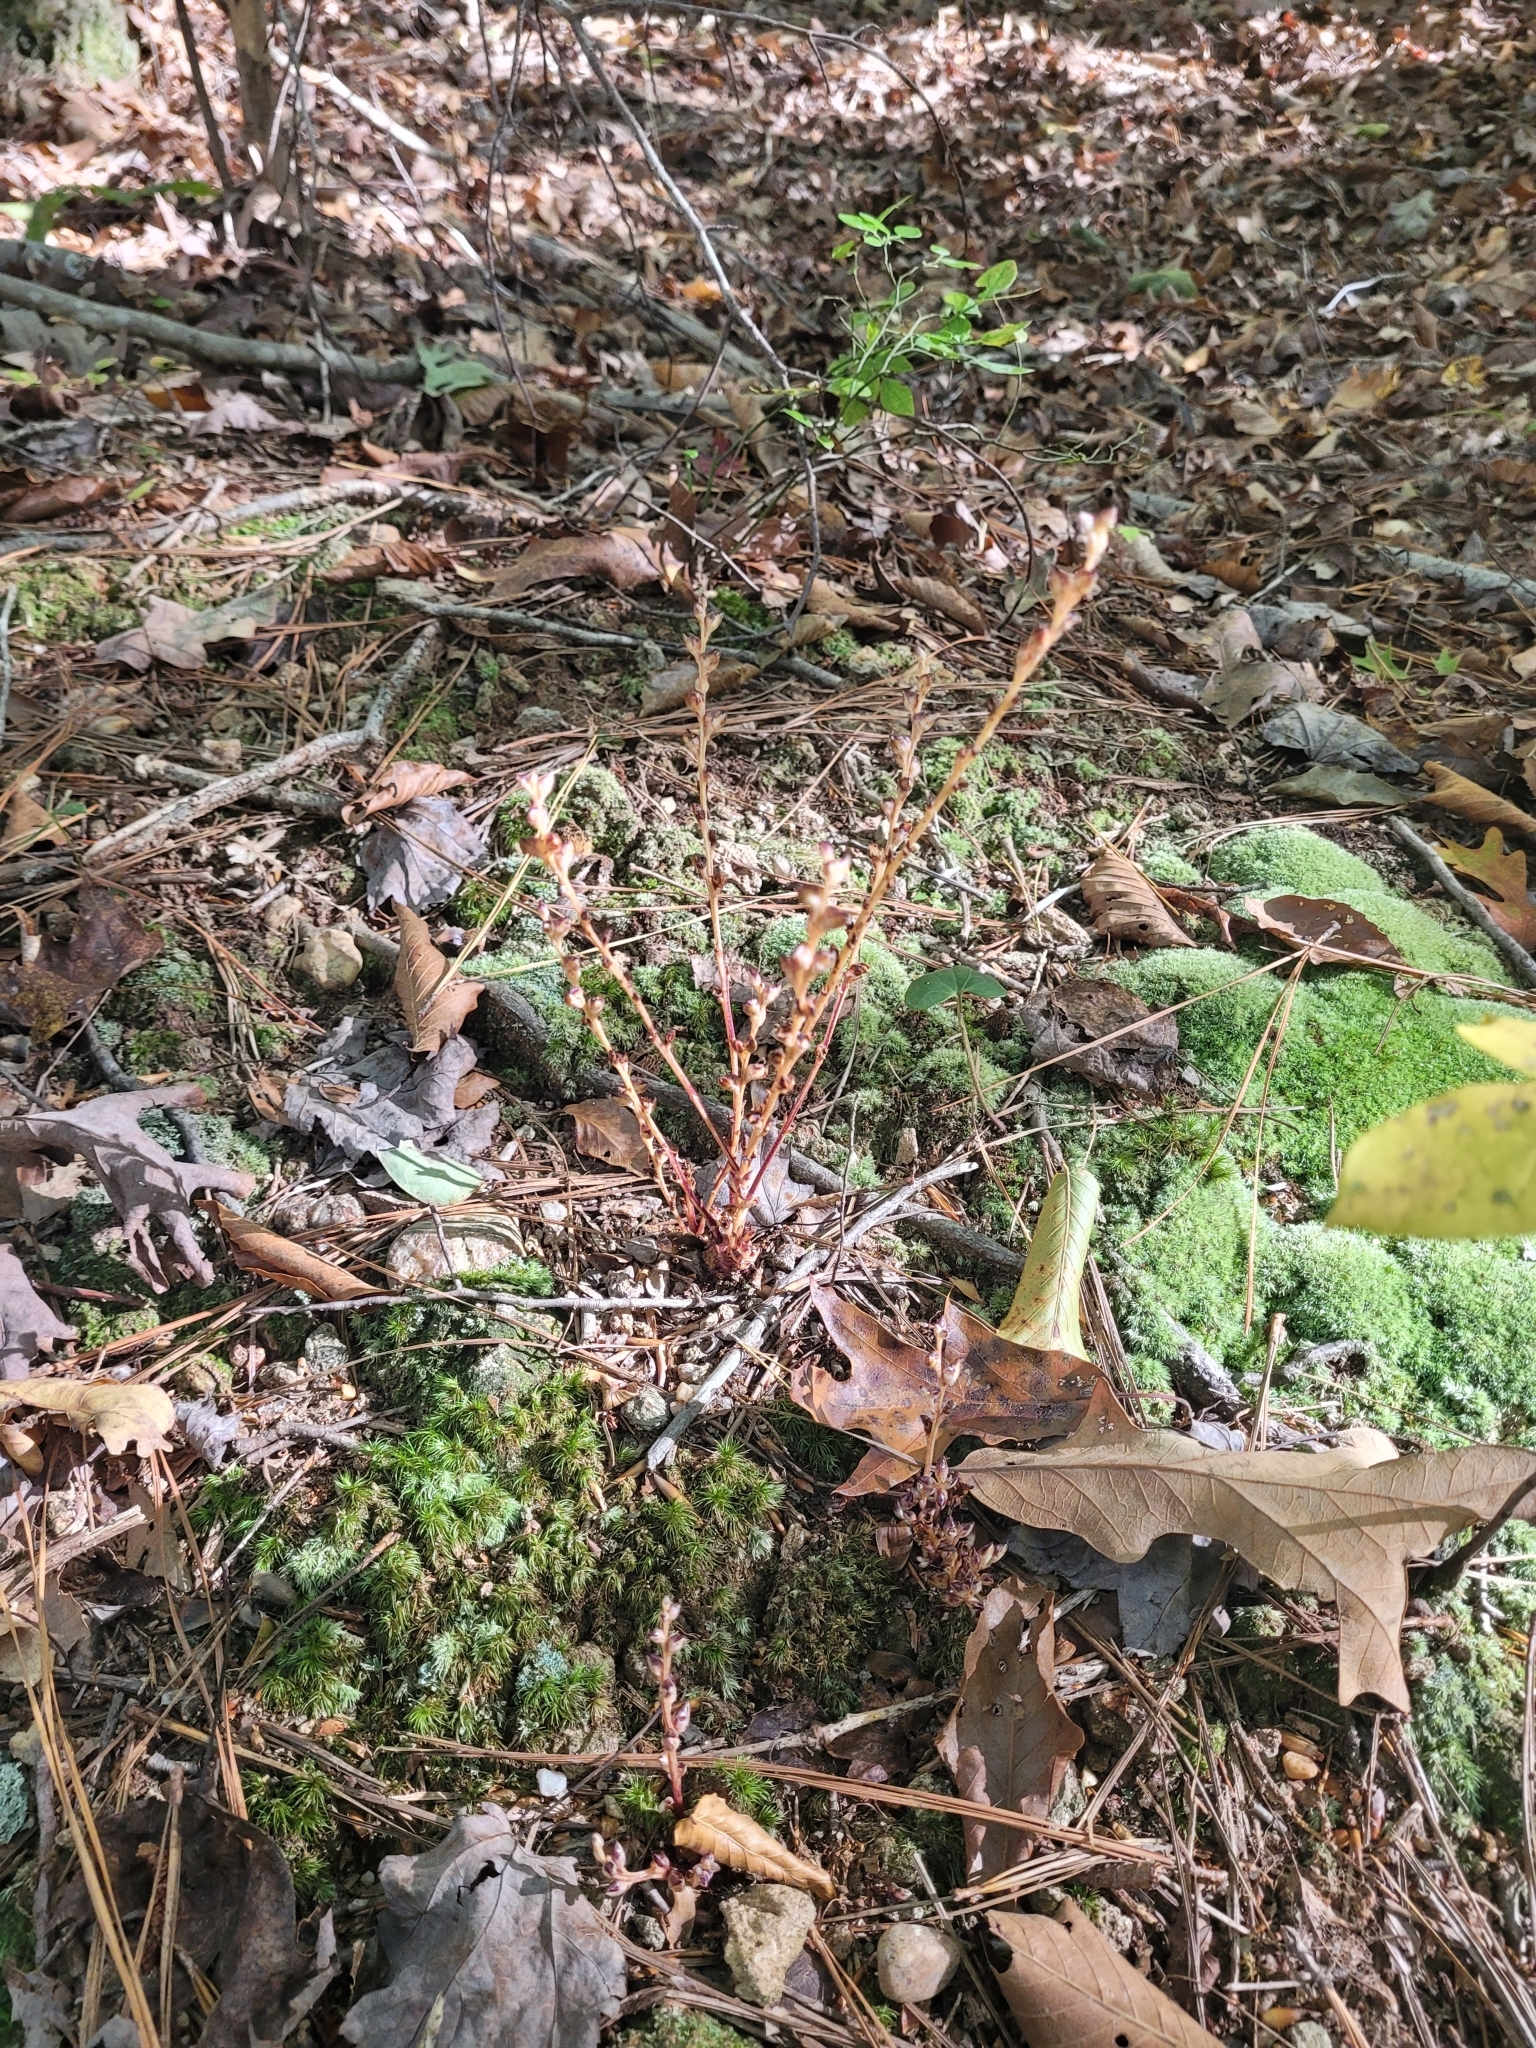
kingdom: Plantae
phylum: Tracheophyta
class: Magnoliopsida
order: Lamiales
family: Orobanchaceae
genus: Epifagus
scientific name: Epifagus virginiana
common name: Beechdrops
